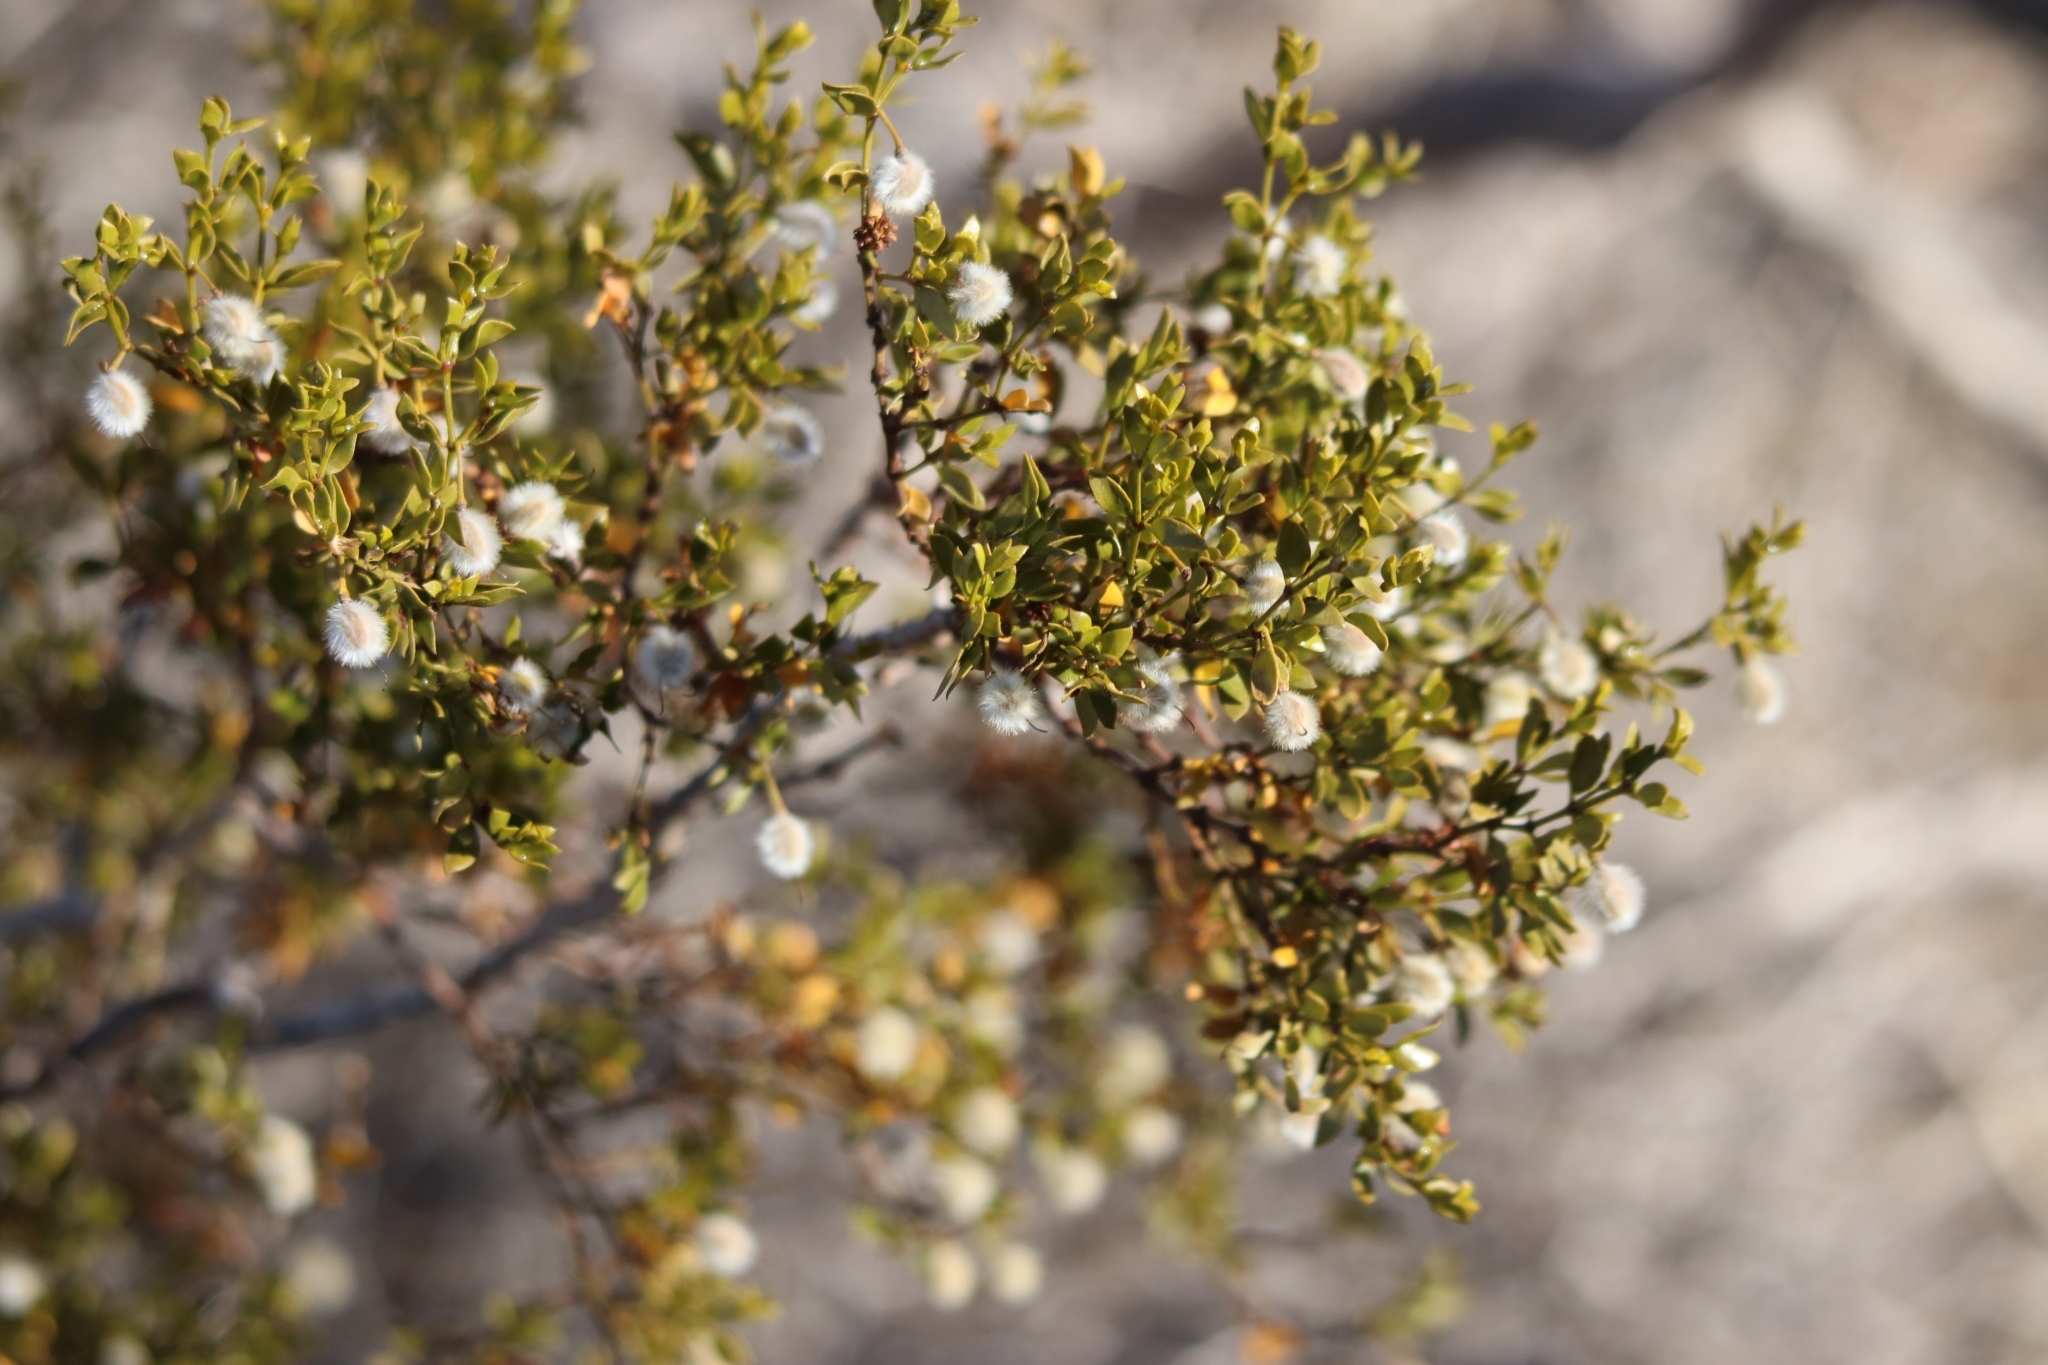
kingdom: Plantae
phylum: Tracheophyta
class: Magnoliopsida
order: Zygophyllales
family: Zygophyllaceae
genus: Larrea
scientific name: Larrea tridentata
